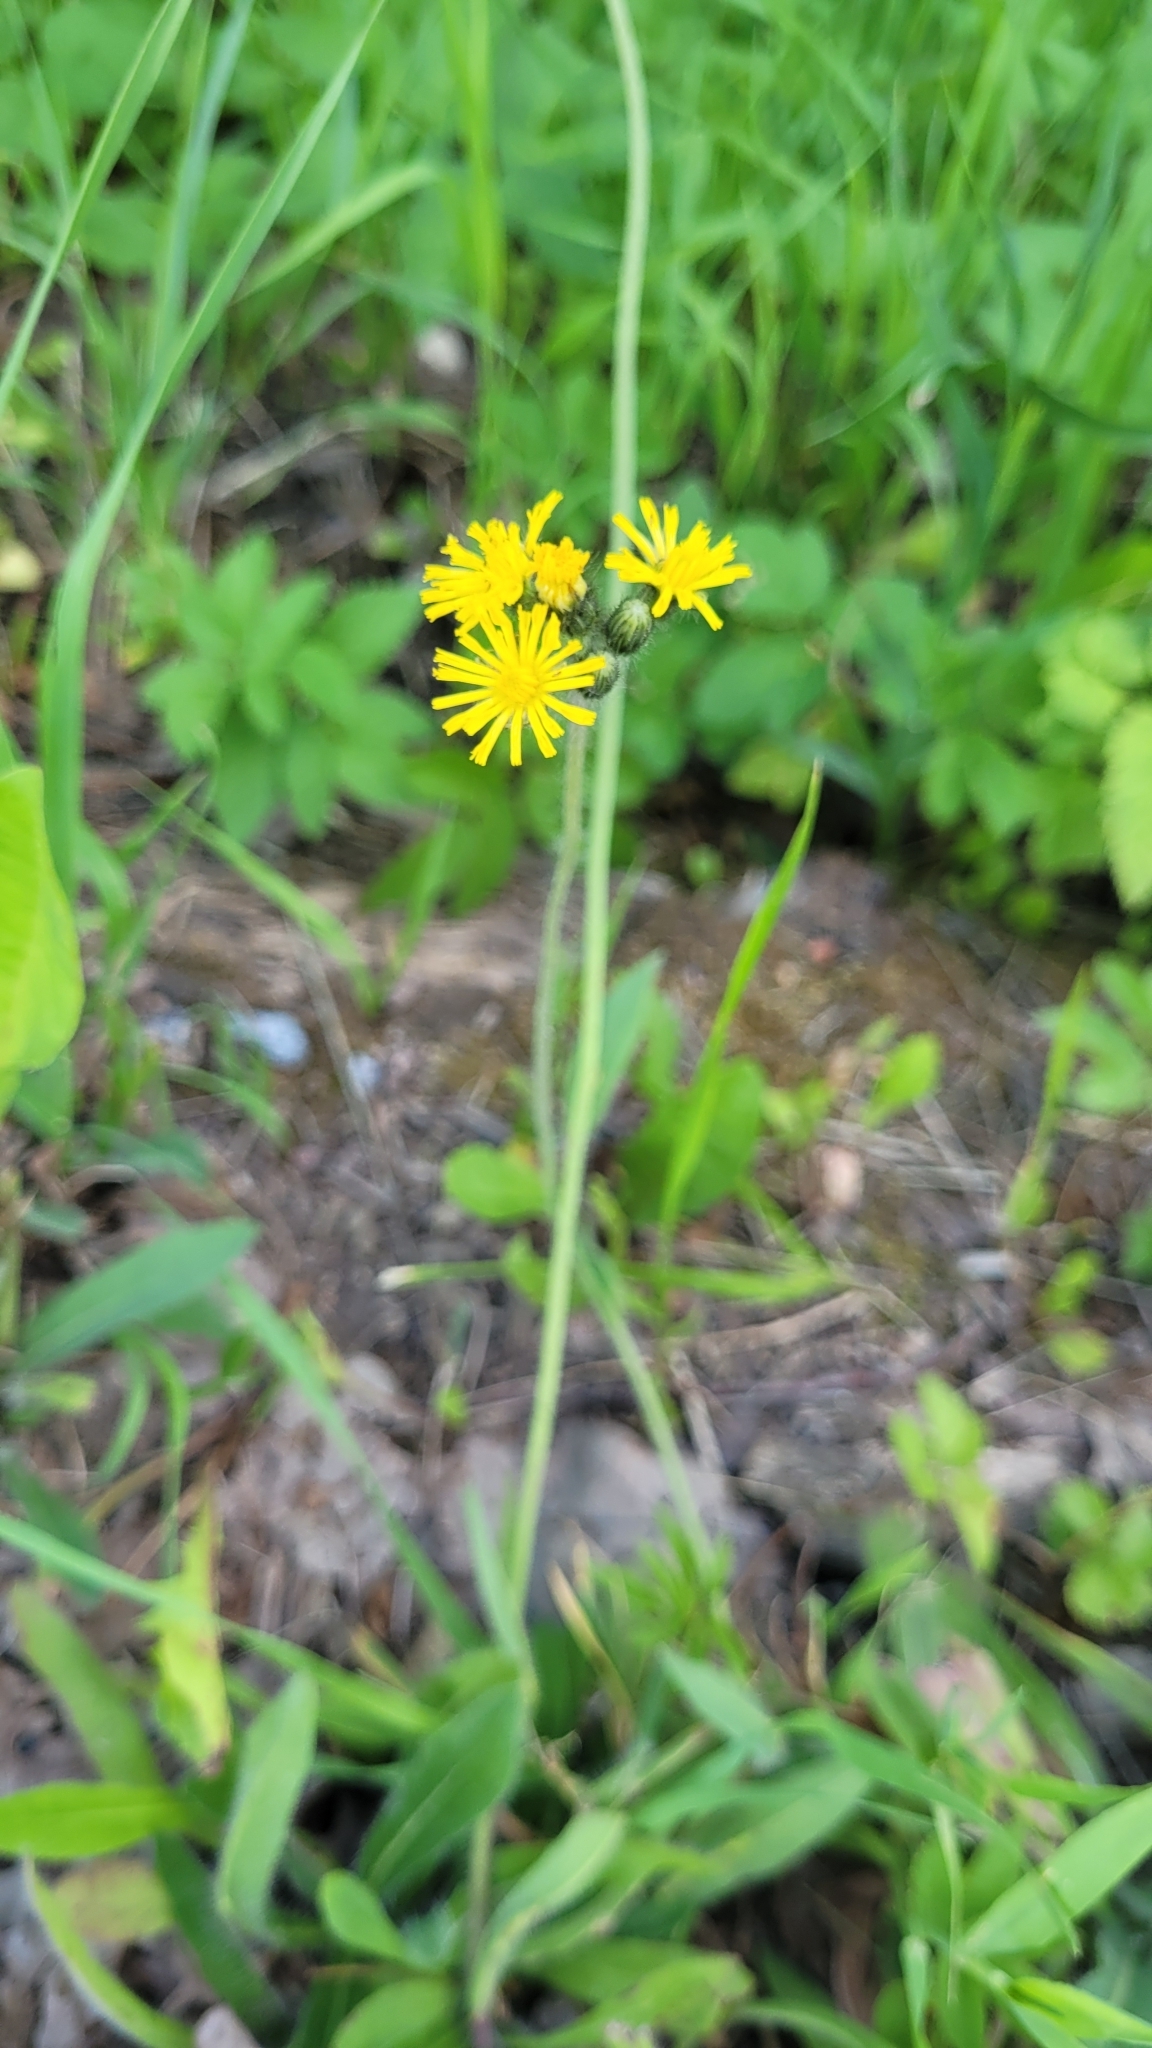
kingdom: Plantae
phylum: Tracheophyta
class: Magnoliopsida
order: Asterales
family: Asteraceae
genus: Hieracium
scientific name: Hieracium murorum
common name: Wall hawkweed
